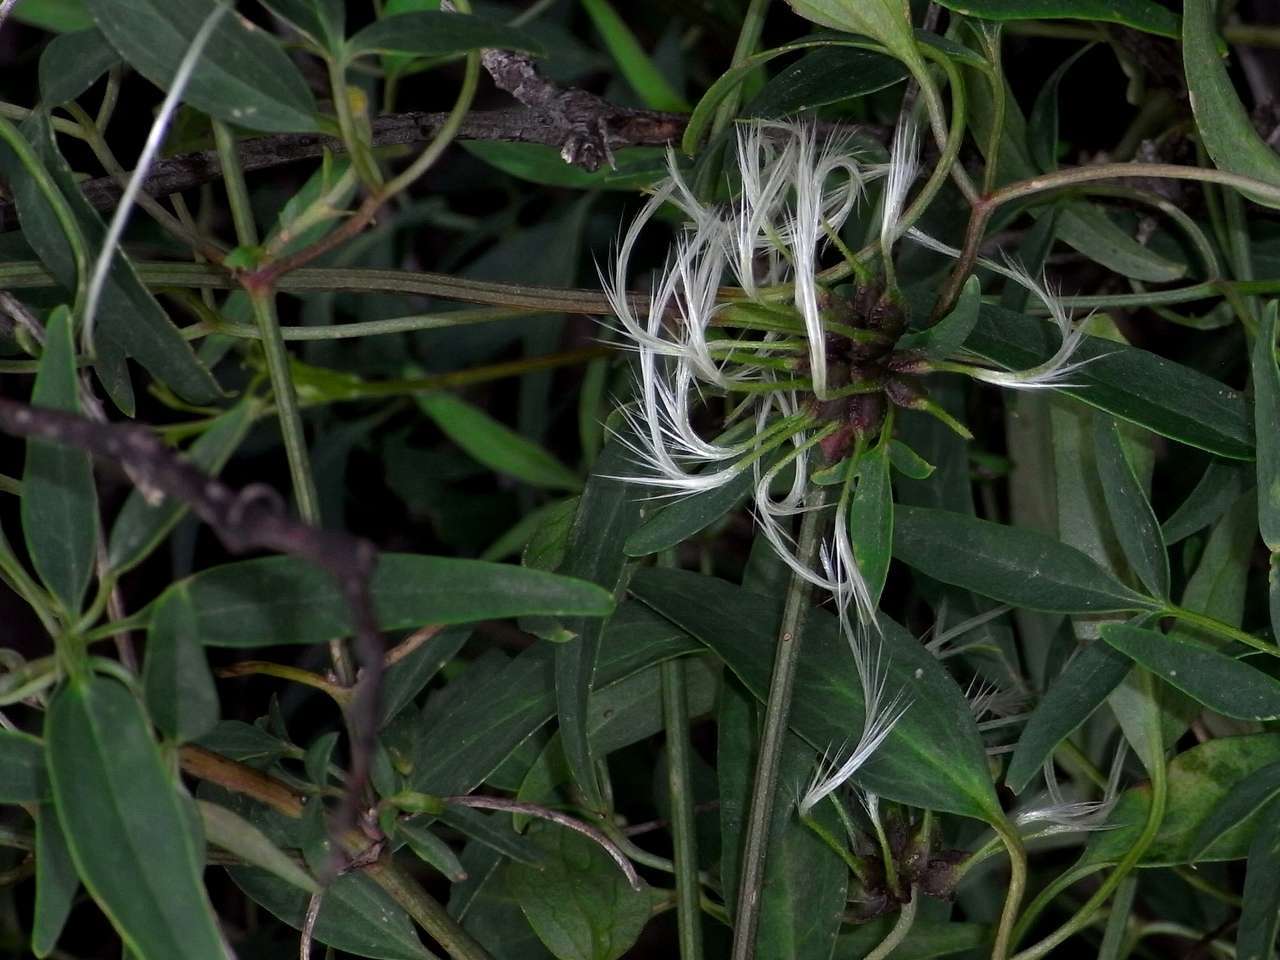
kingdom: Plantae
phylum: Tracheophyta
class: Magnoliopsida
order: Ranunculales
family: Ranunculaceae
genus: Clematis
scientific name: Clematis microphylla
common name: Headachevine
